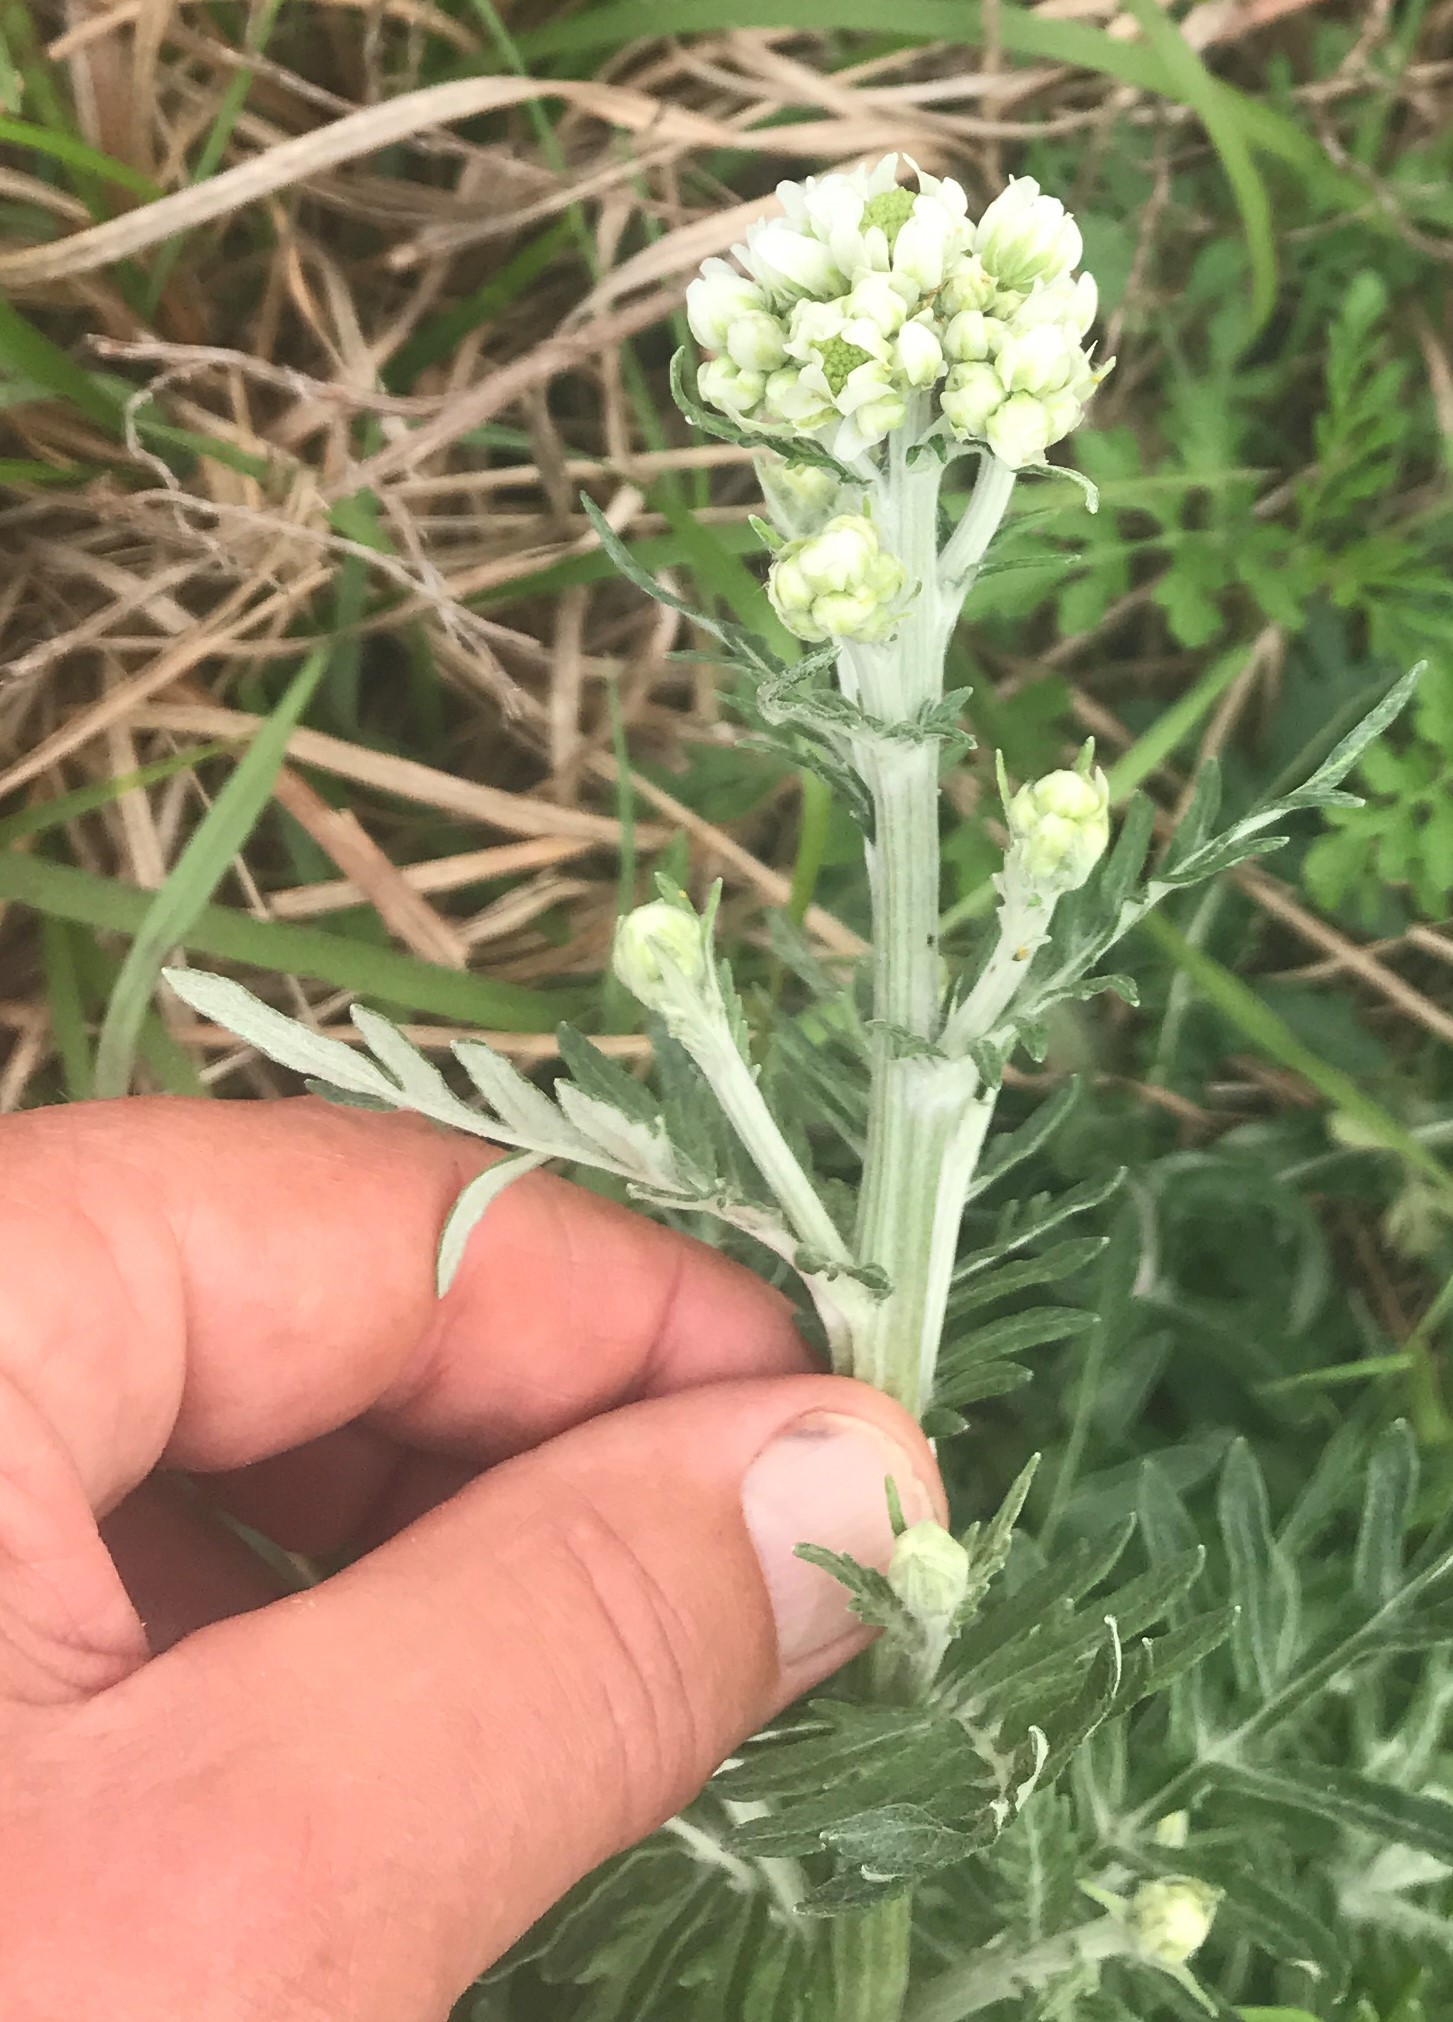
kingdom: Plantae
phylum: Tracheophyta
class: Magnoliopsida
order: Asterales
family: Asteraceae
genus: Hymenopappus
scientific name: Hymenopappus artemisiifolius
